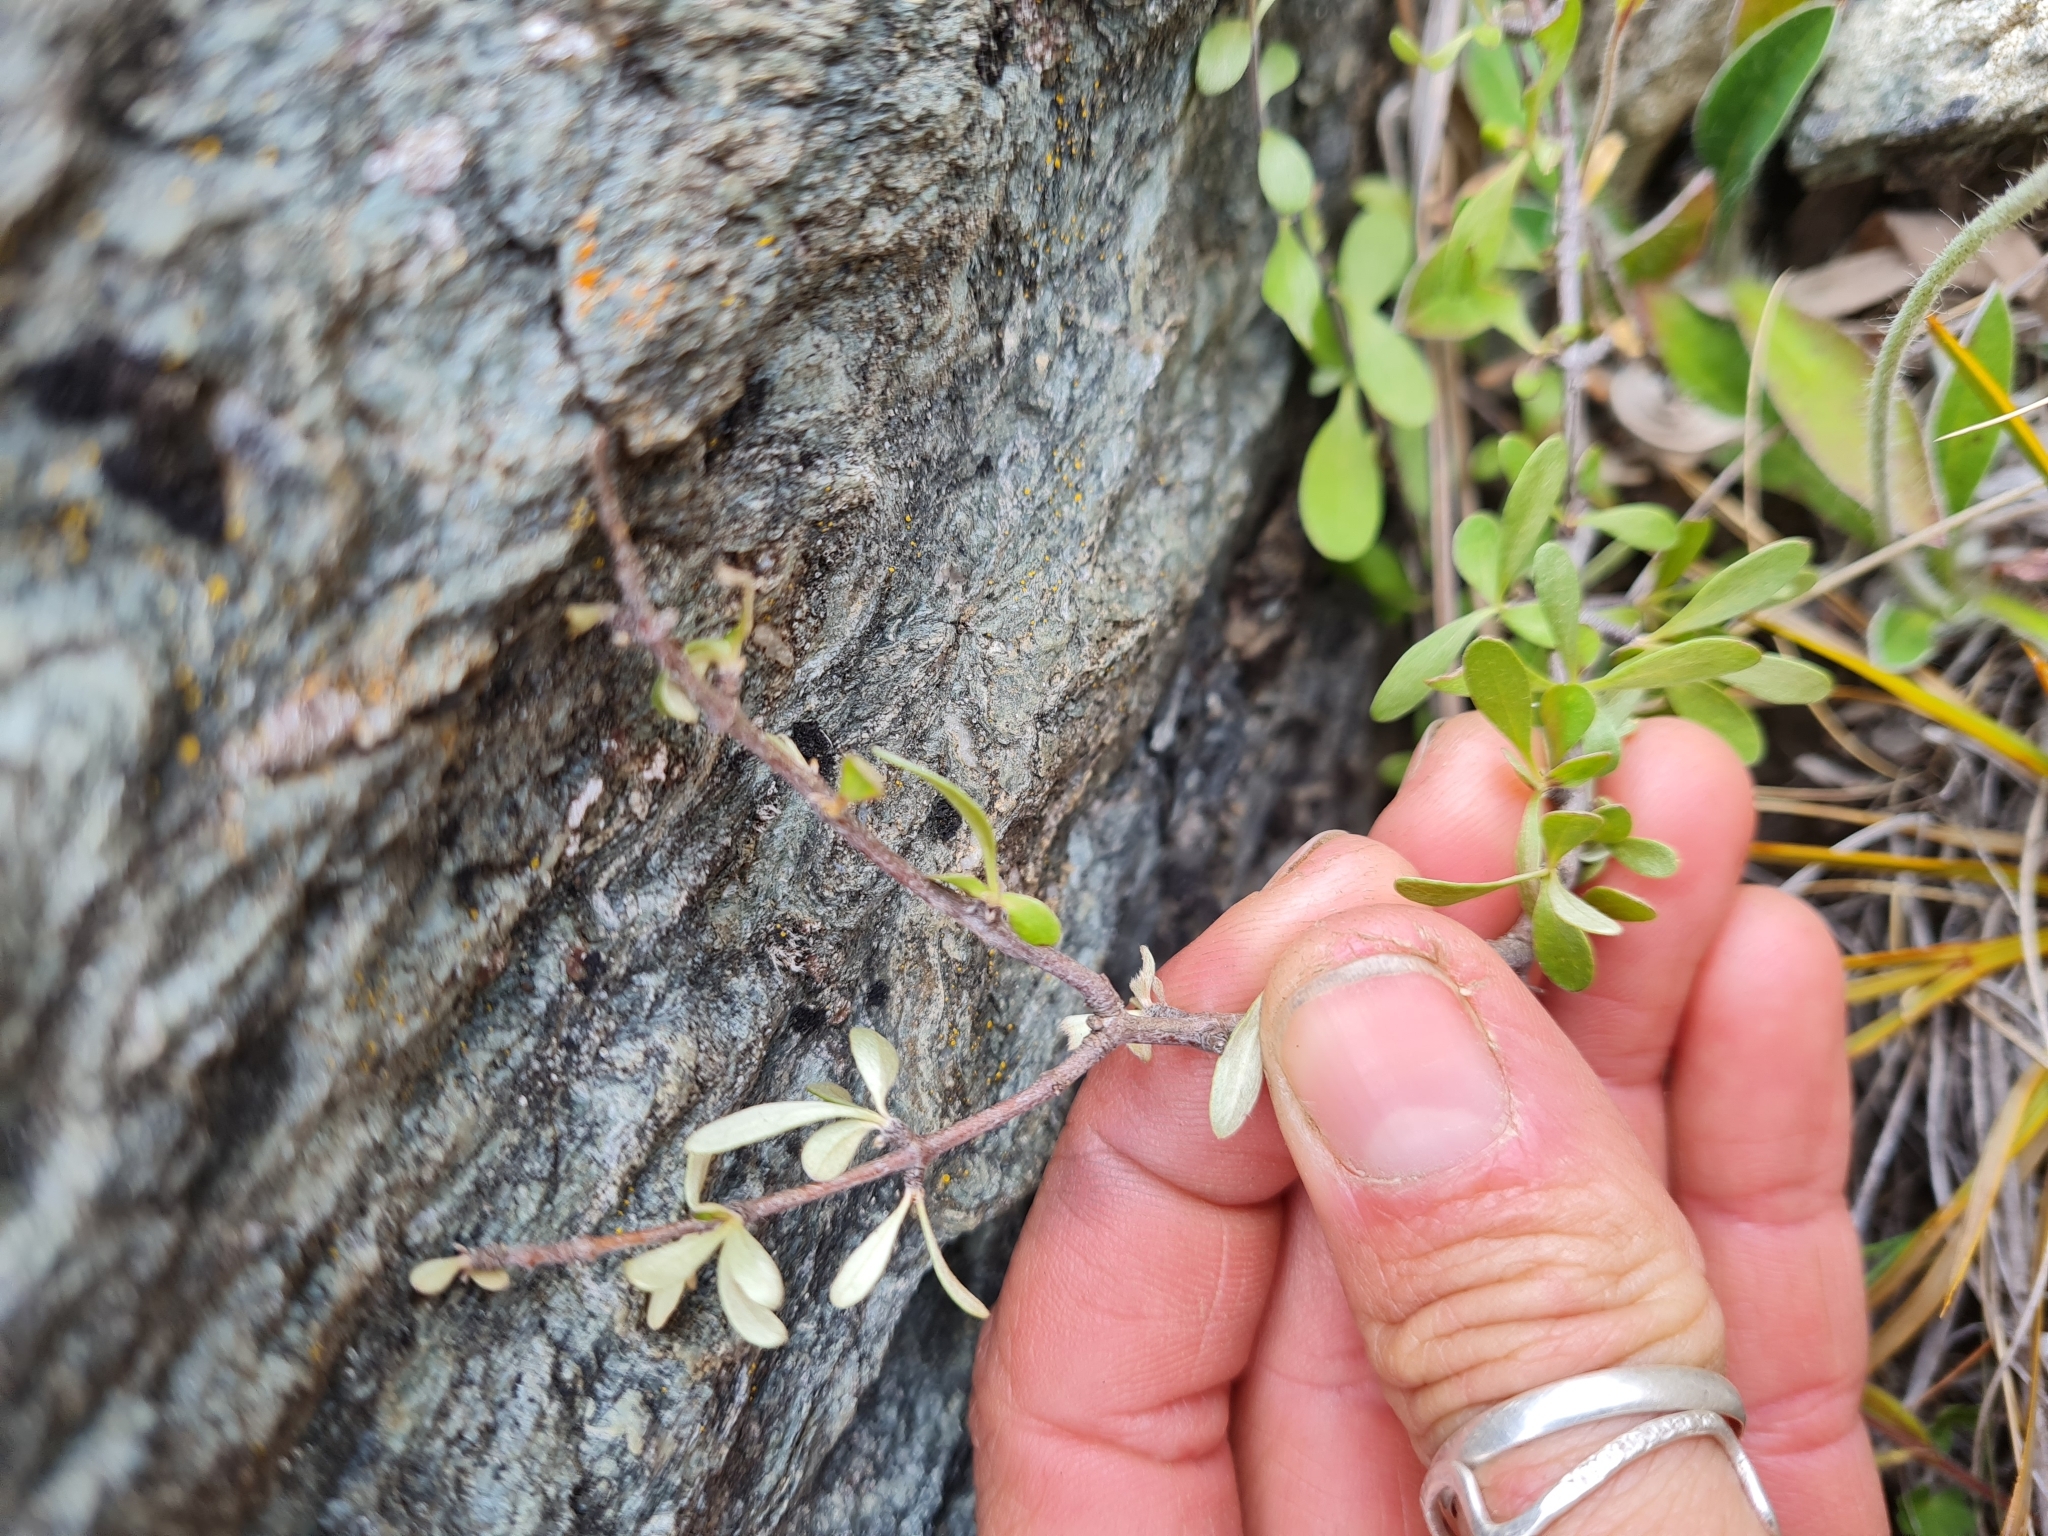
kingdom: Plantae
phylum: Tracheophyta
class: Magnoliopsida
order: Asterales
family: Asteraceae
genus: Olearia
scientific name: Olearia odorata
